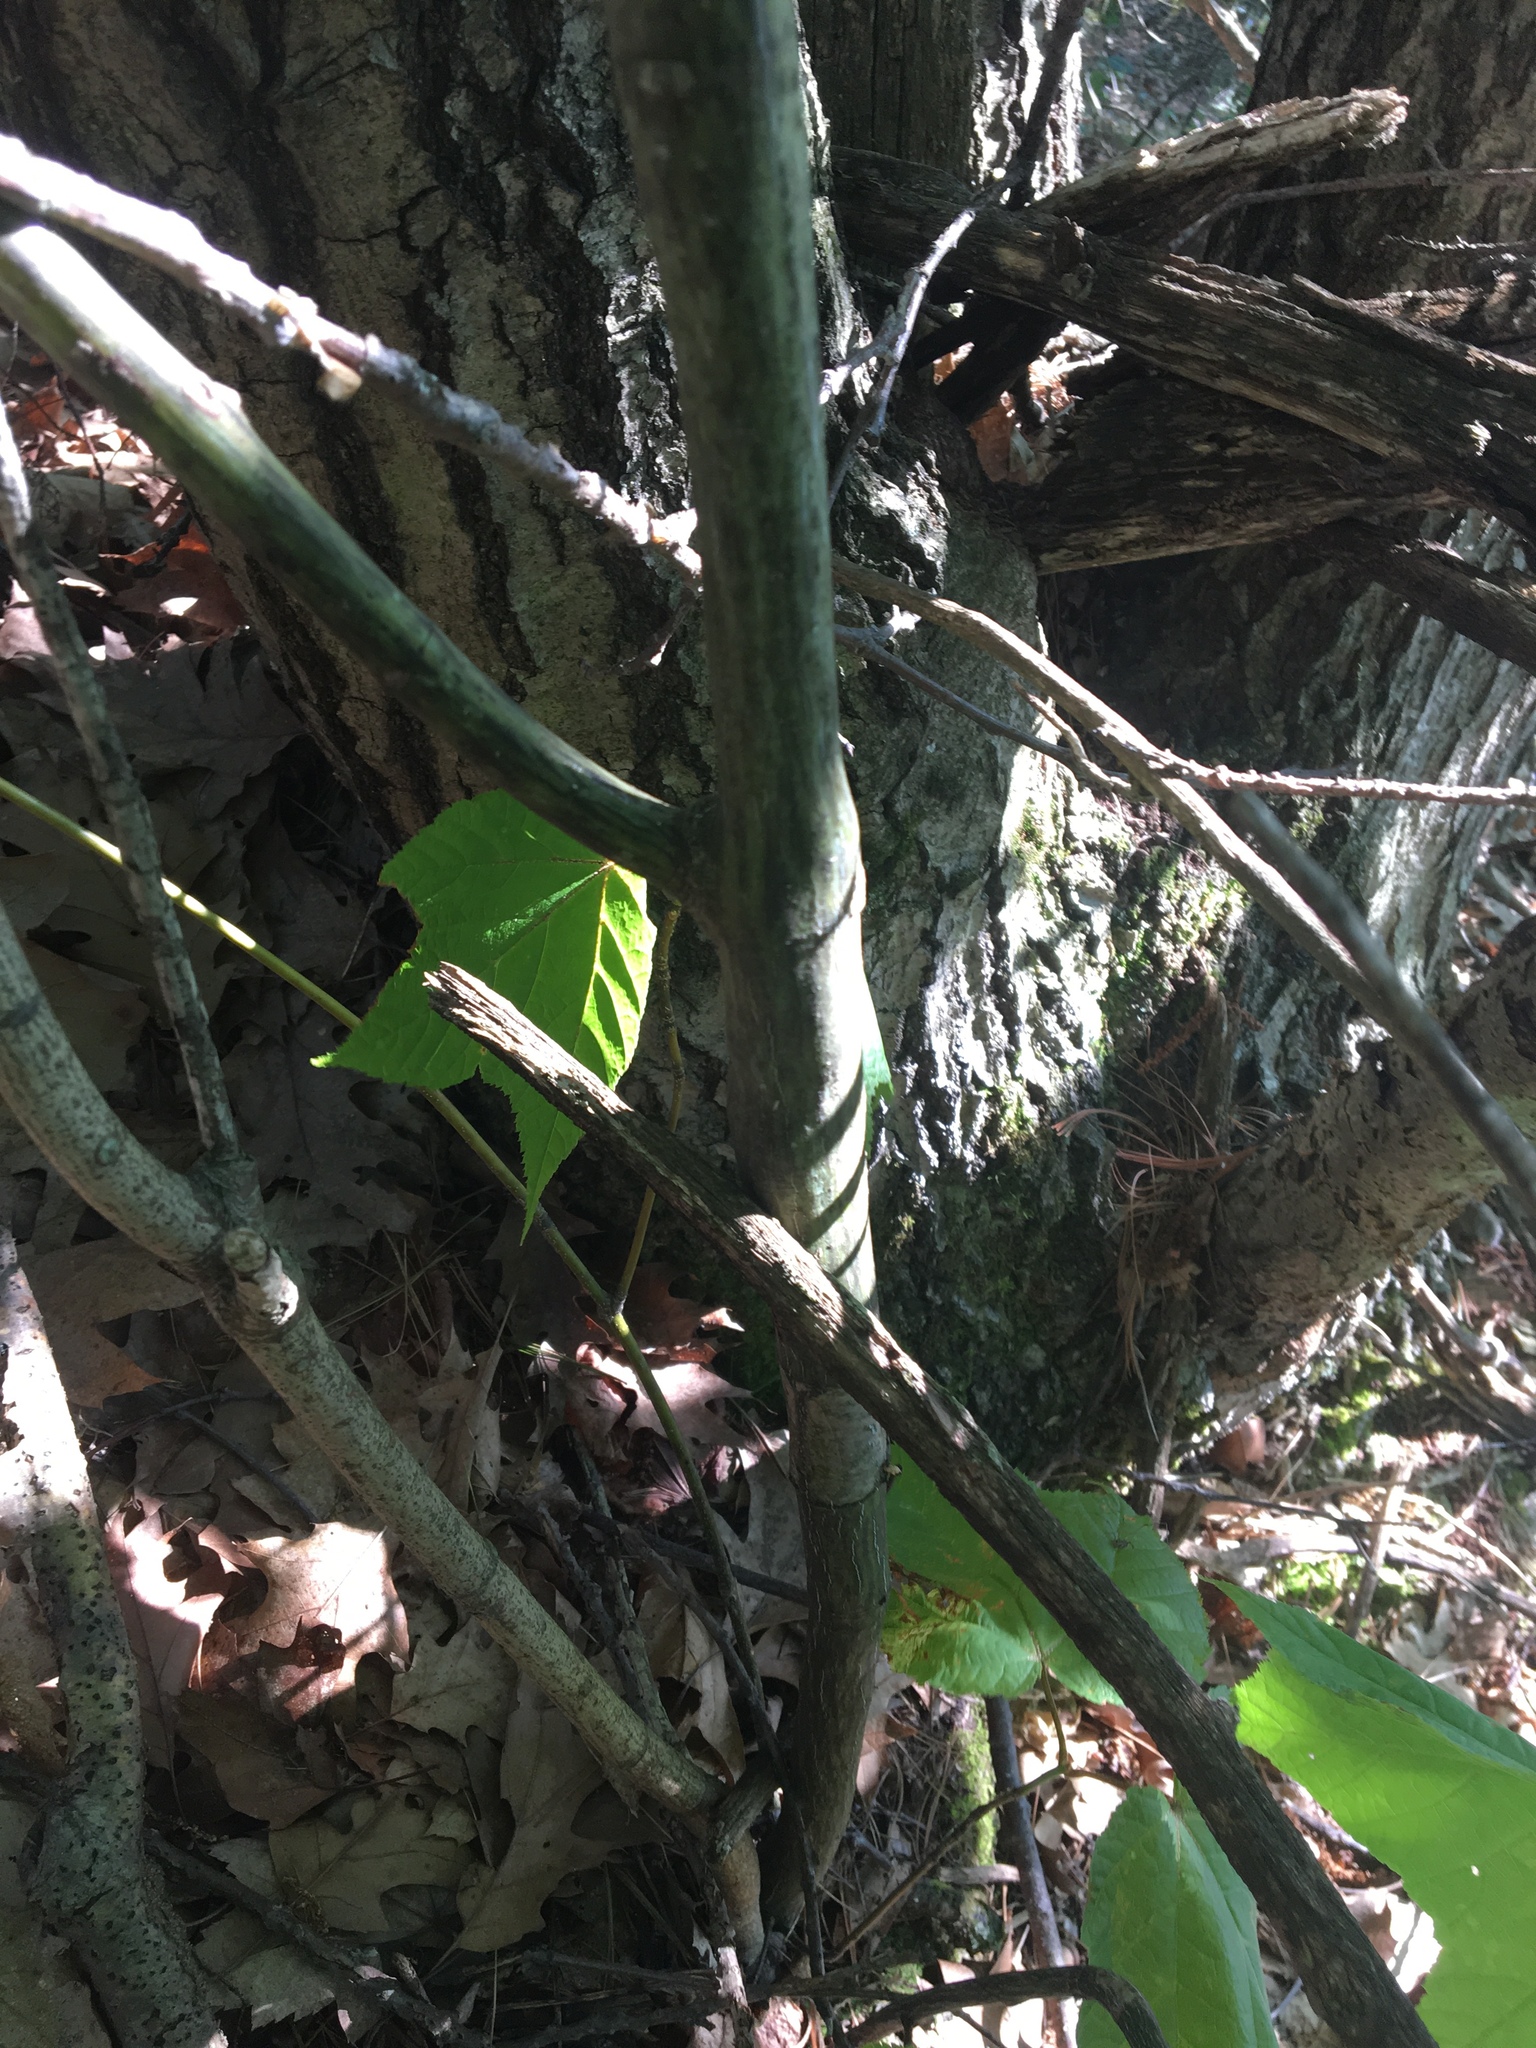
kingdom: Plantae
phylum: Tracheophyta
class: Magnoliopsida
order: Sapindales
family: Sapindaceae
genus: Acer
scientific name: Acer pensylvanicum
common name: Moosewood
